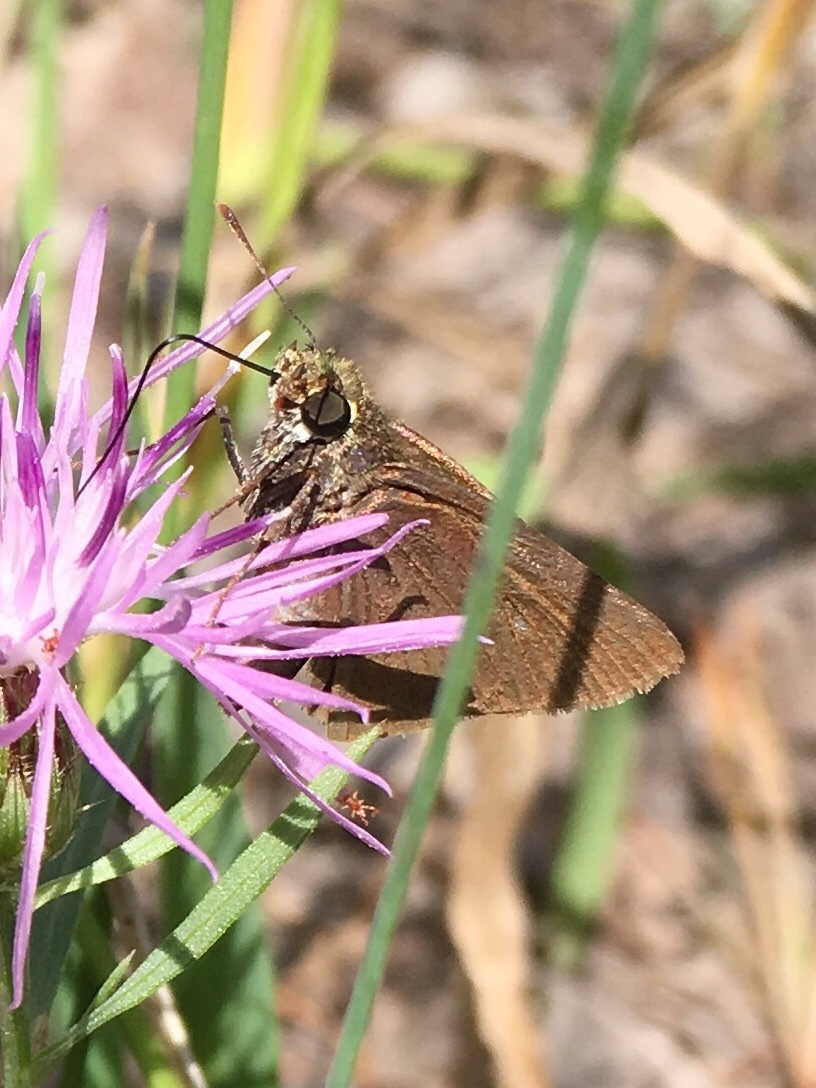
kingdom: Animalia
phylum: Arthropoda
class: Insecta
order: Lepidoptera
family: Hesperiidae
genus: Euphyes
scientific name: Euphyes vestris
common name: Dun skipper
